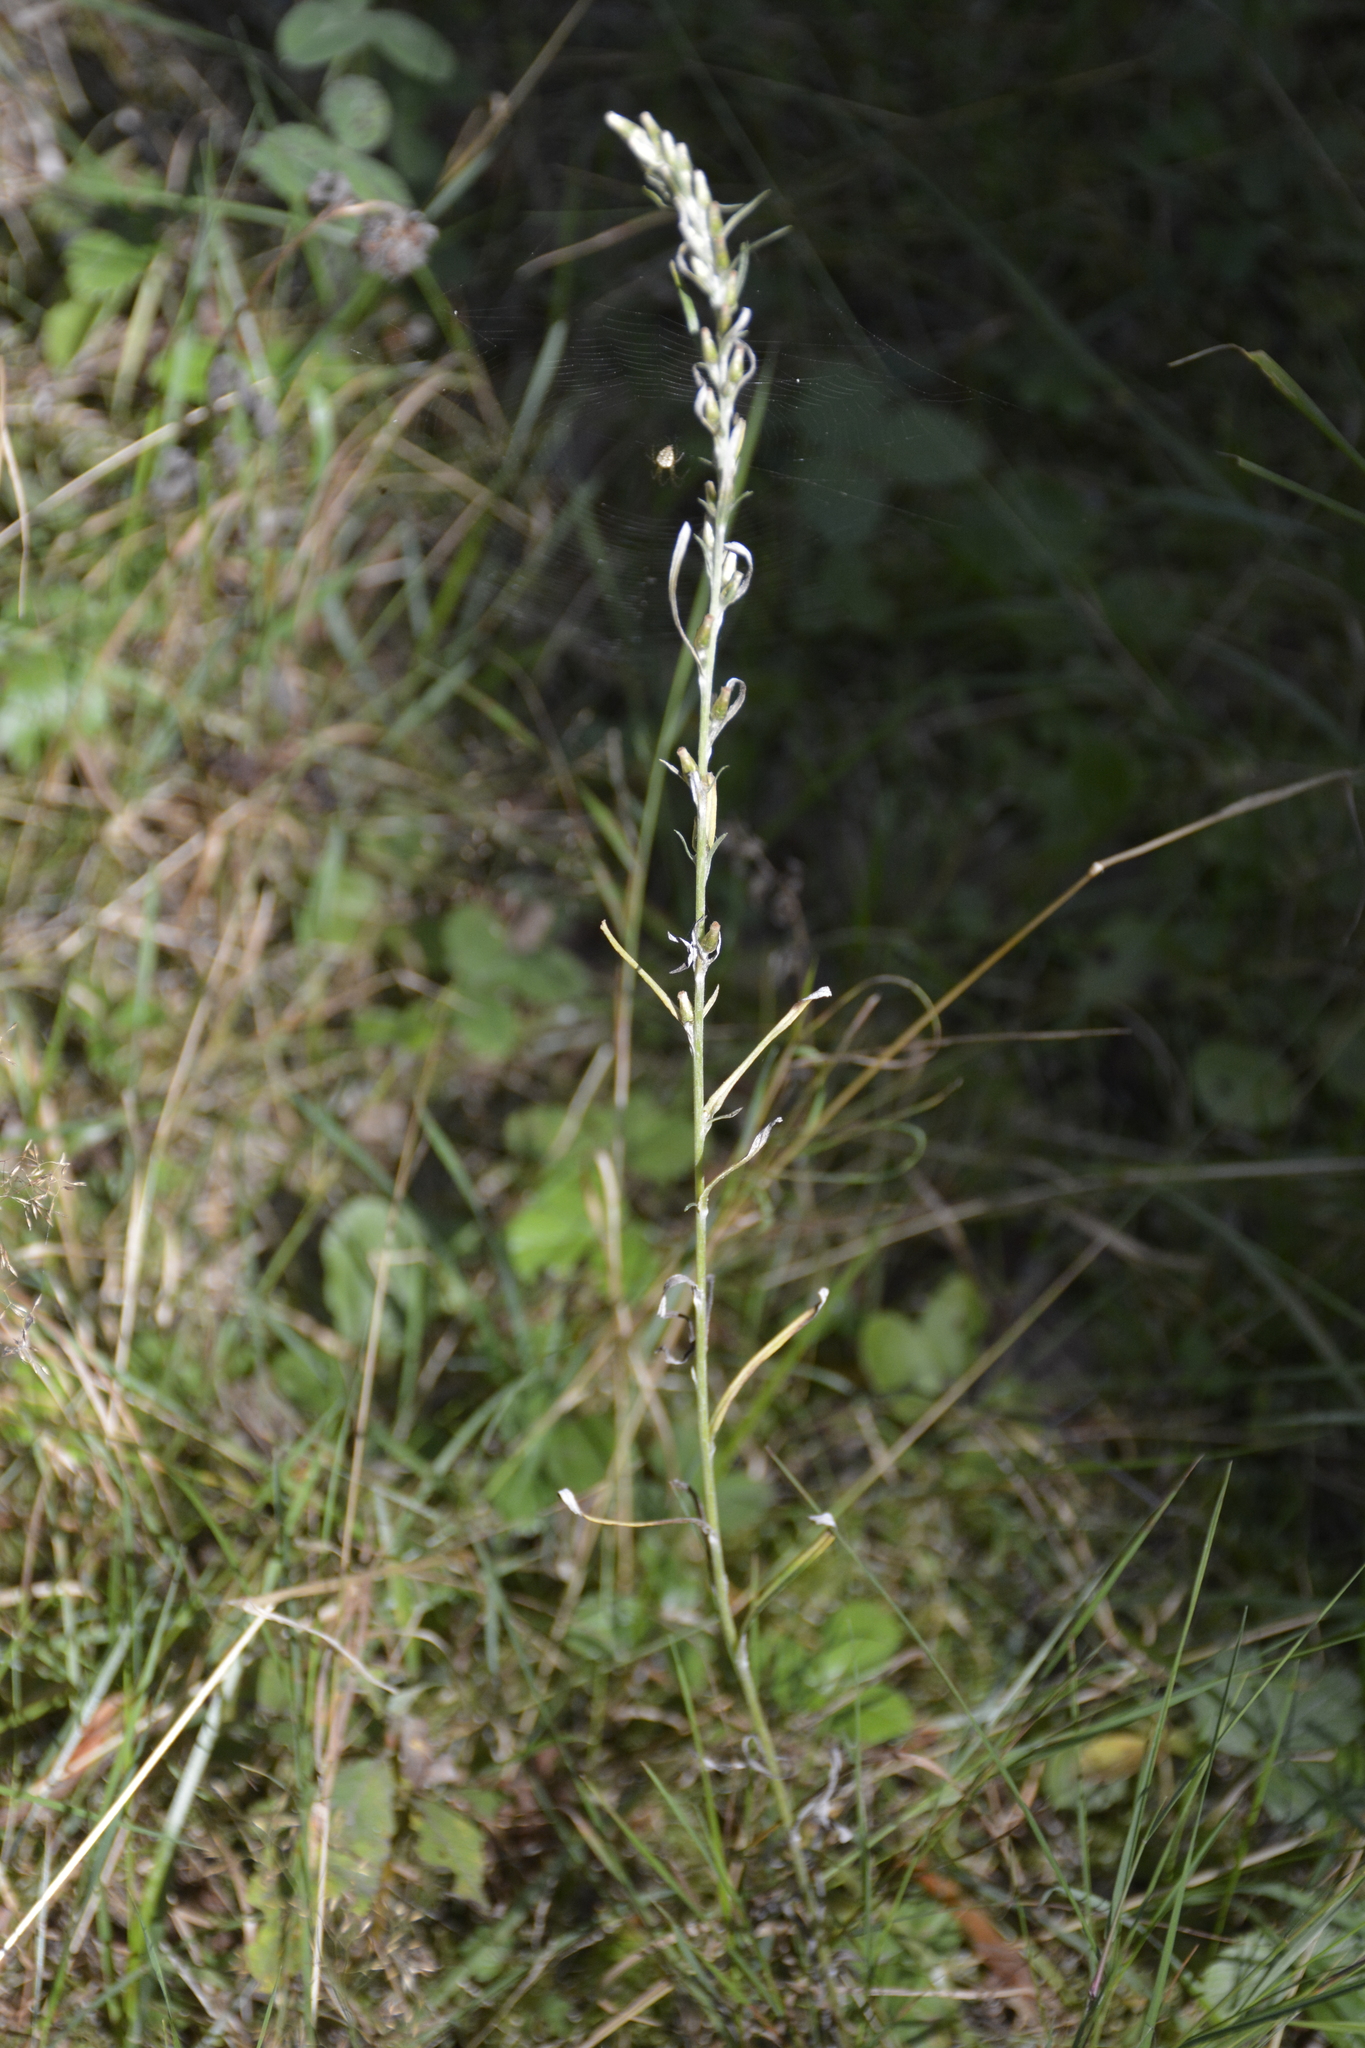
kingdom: Plantae
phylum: Tracheophyta
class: Magnoliopsida
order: Asterales
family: Asteraceae
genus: Omalotheca
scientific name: Omalotheca sylvatica
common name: Heath cudweed
